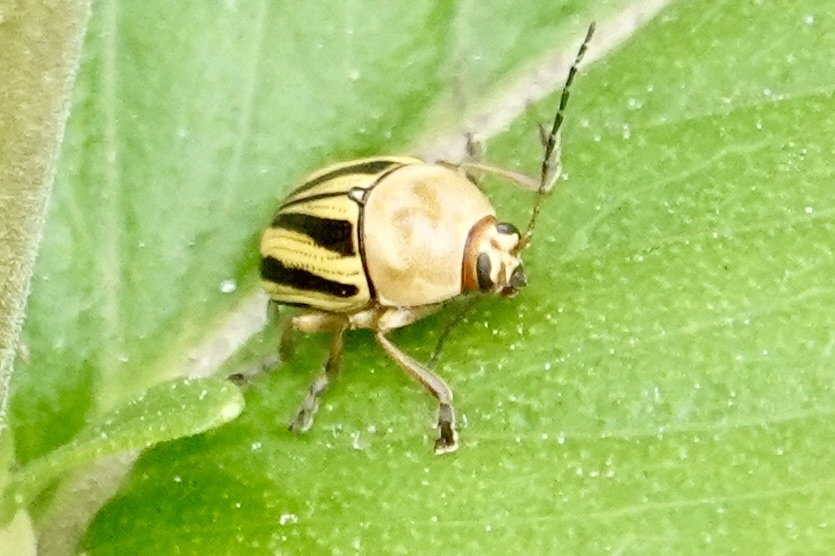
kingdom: Animalia
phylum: Arthropoda
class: Insecta
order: Coleoptera
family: Chrysomelidae
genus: Cryptocephalus
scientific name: Cryptocephalus venustus
